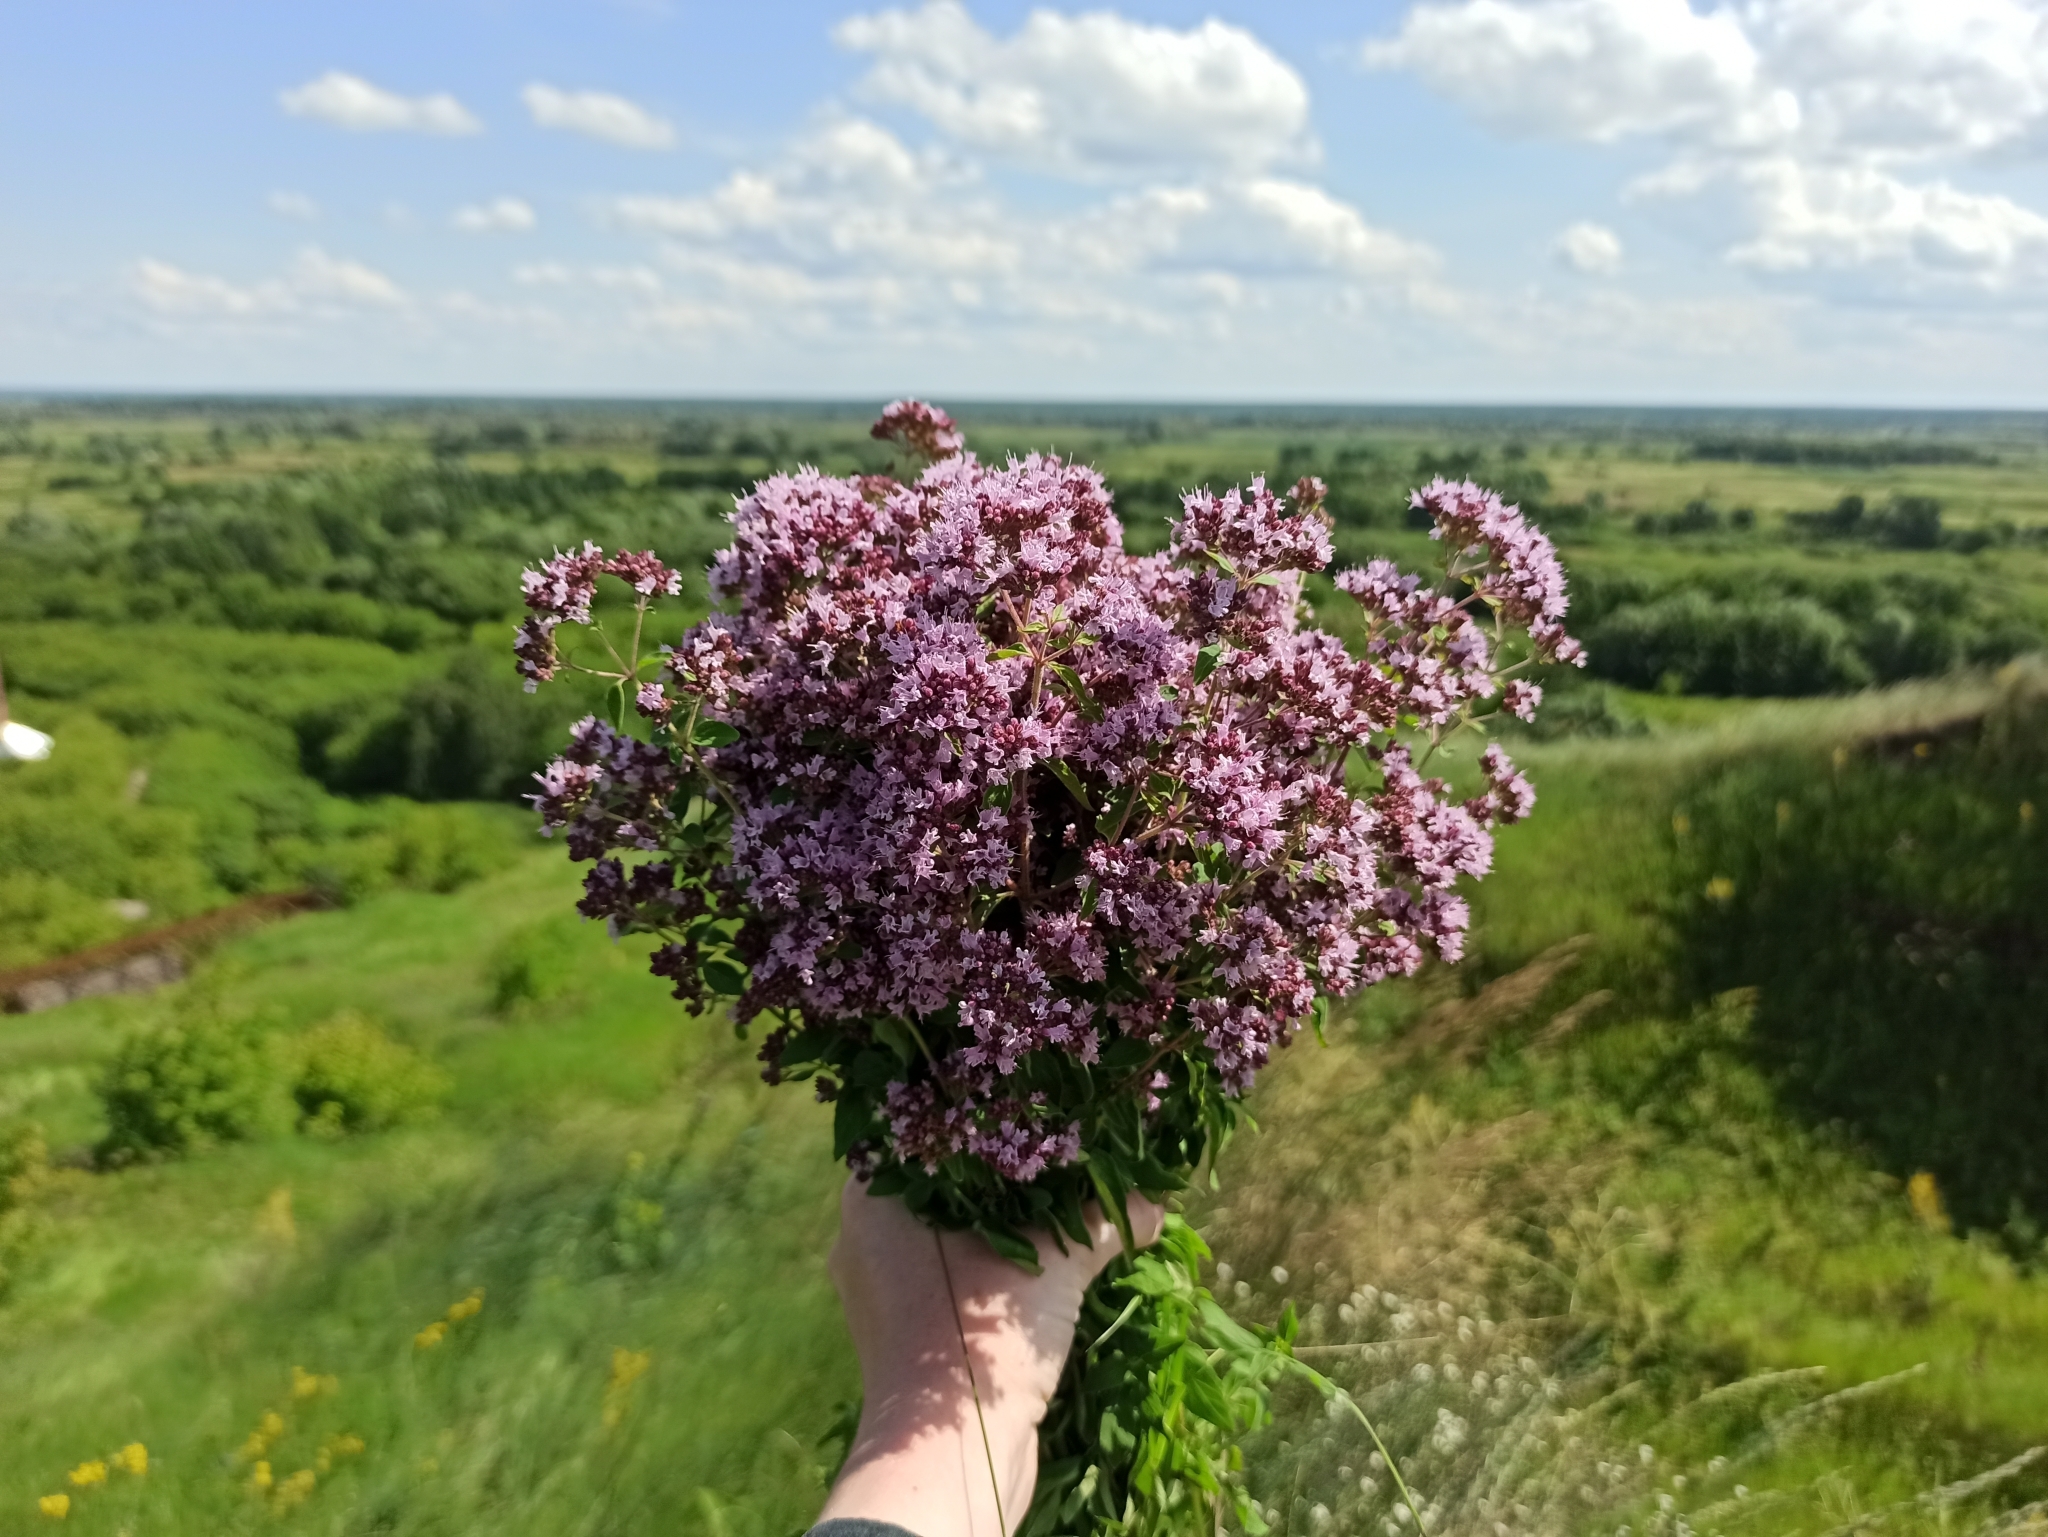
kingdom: Plantae
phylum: Tracheophyta
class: Magnoliopsida
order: Lamiales
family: Lamiaceae
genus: Origanum
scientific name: Origanum vulgare
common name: Wild marjoram
